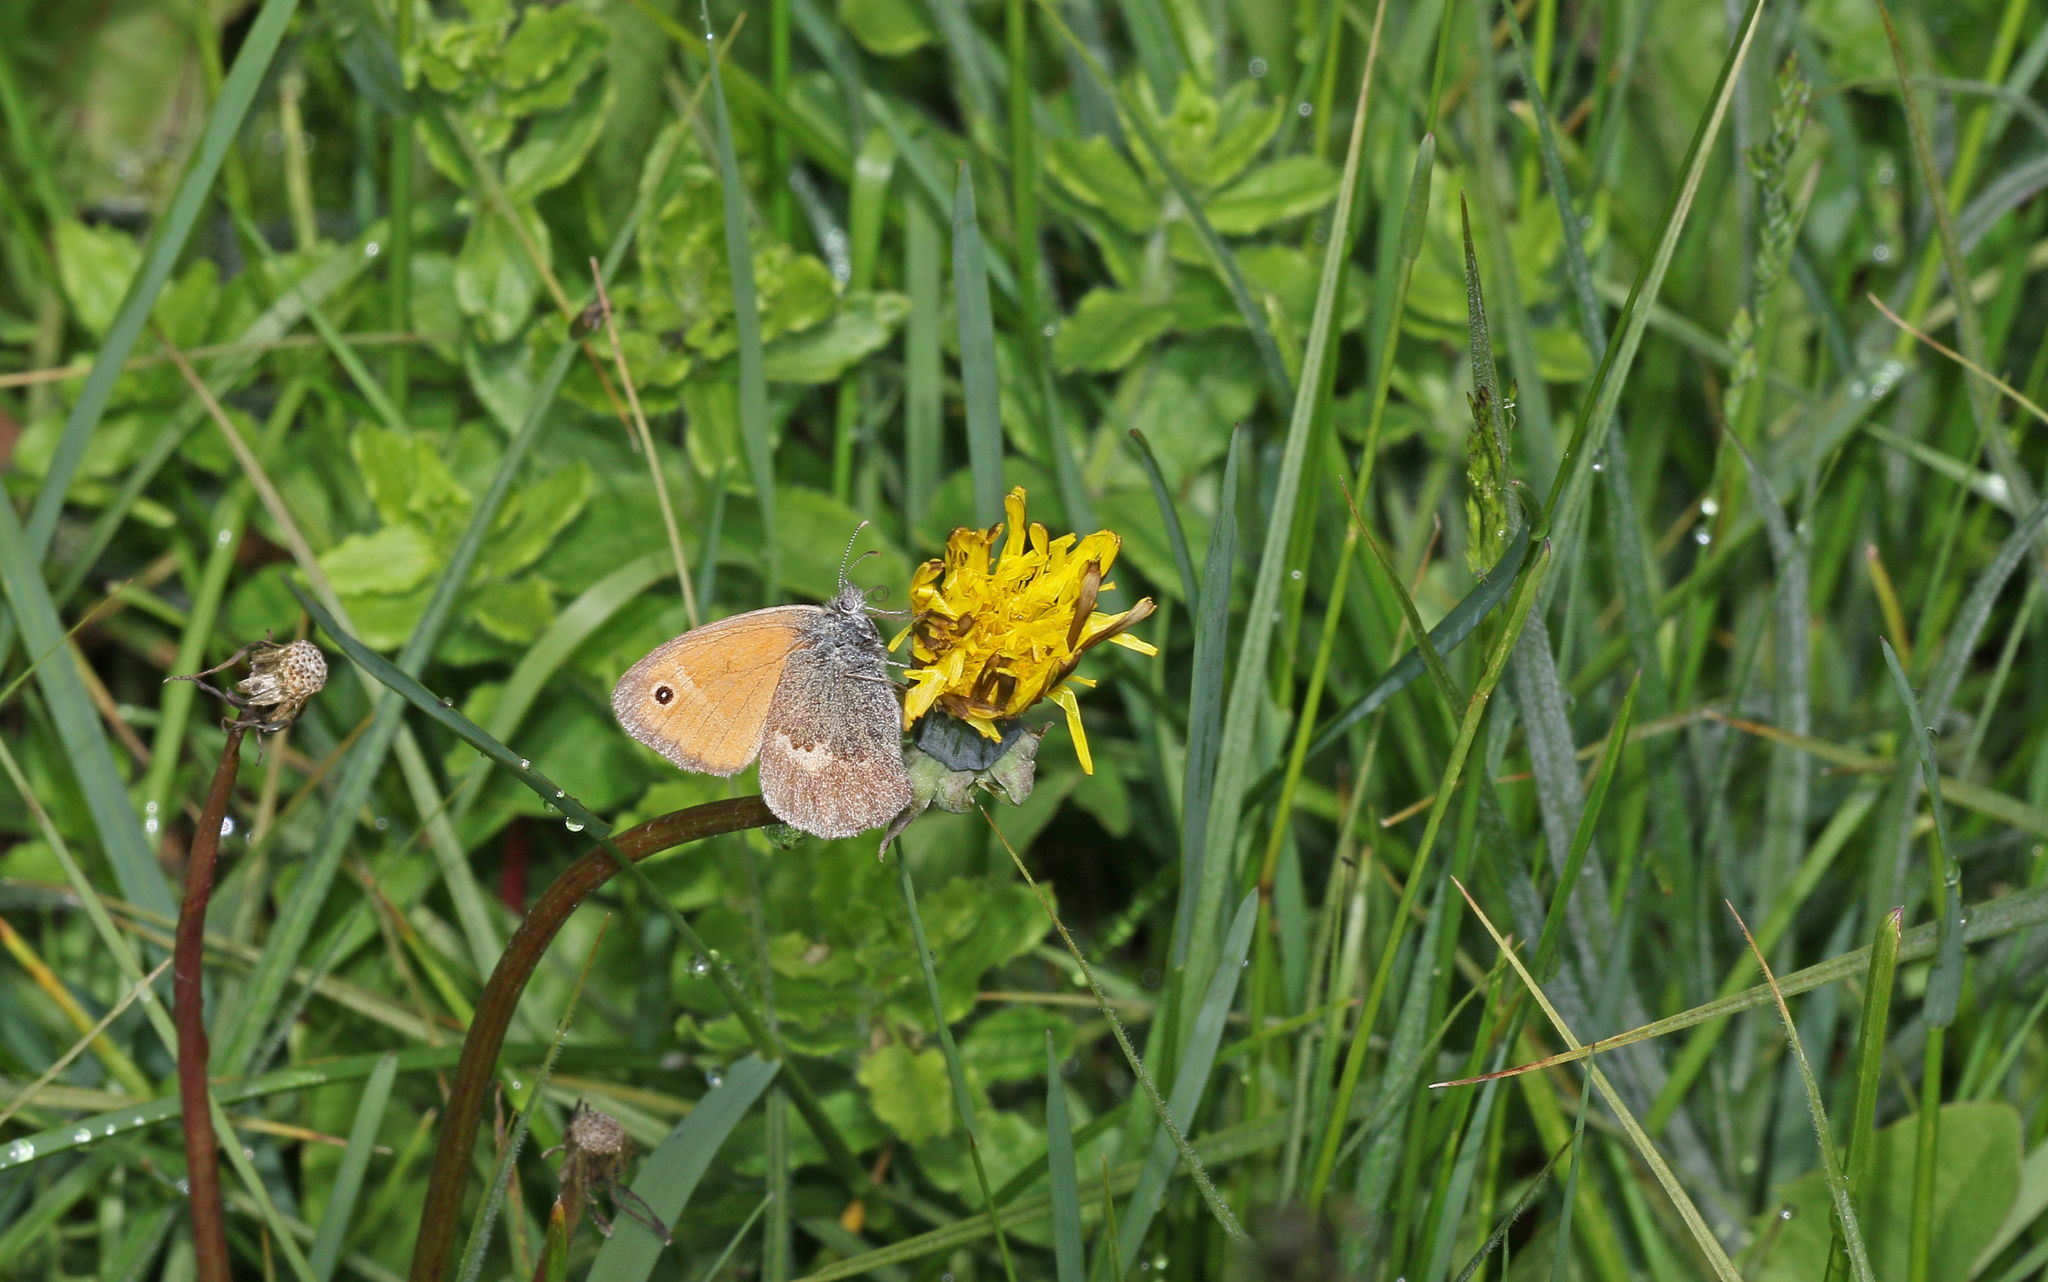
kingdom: Animalia
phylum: Arthropoda
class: Insecta
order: Lepidoptera
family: Nymphalidae
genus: Coenonympha
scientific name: Coenonympha pamphilus
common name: Small heath
